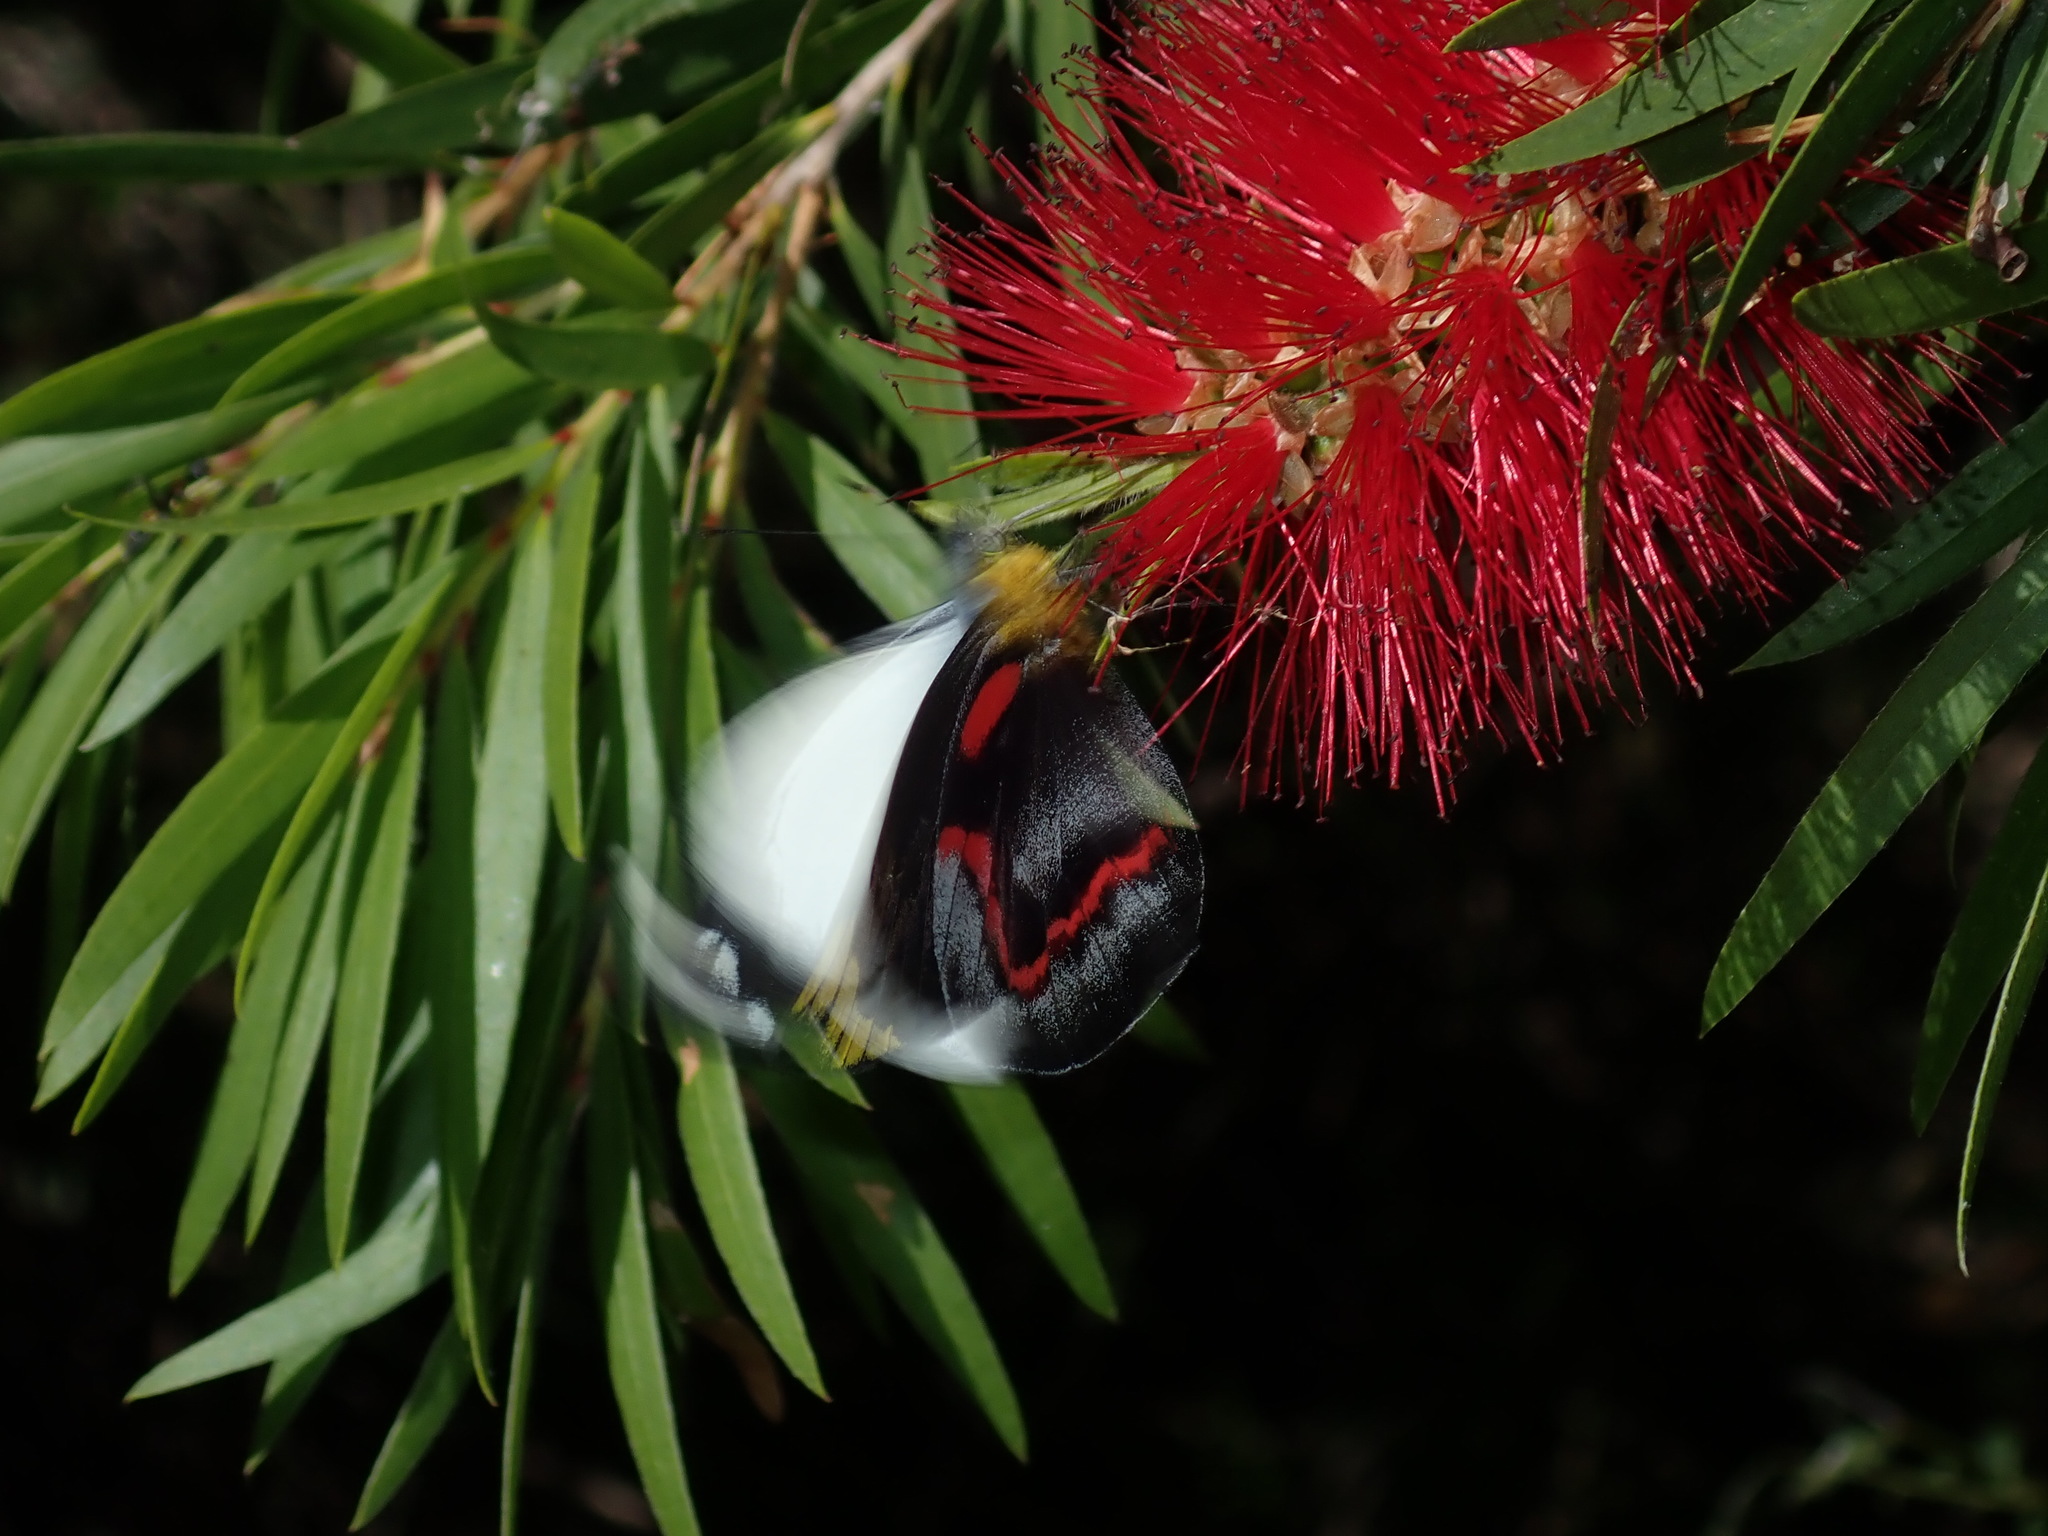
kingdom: Animalia
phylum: Arthropoda
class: Insecta
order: Lepidoptera
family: Pieridae
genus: Delias
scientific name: Delias nigrina
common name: Black jezebel
